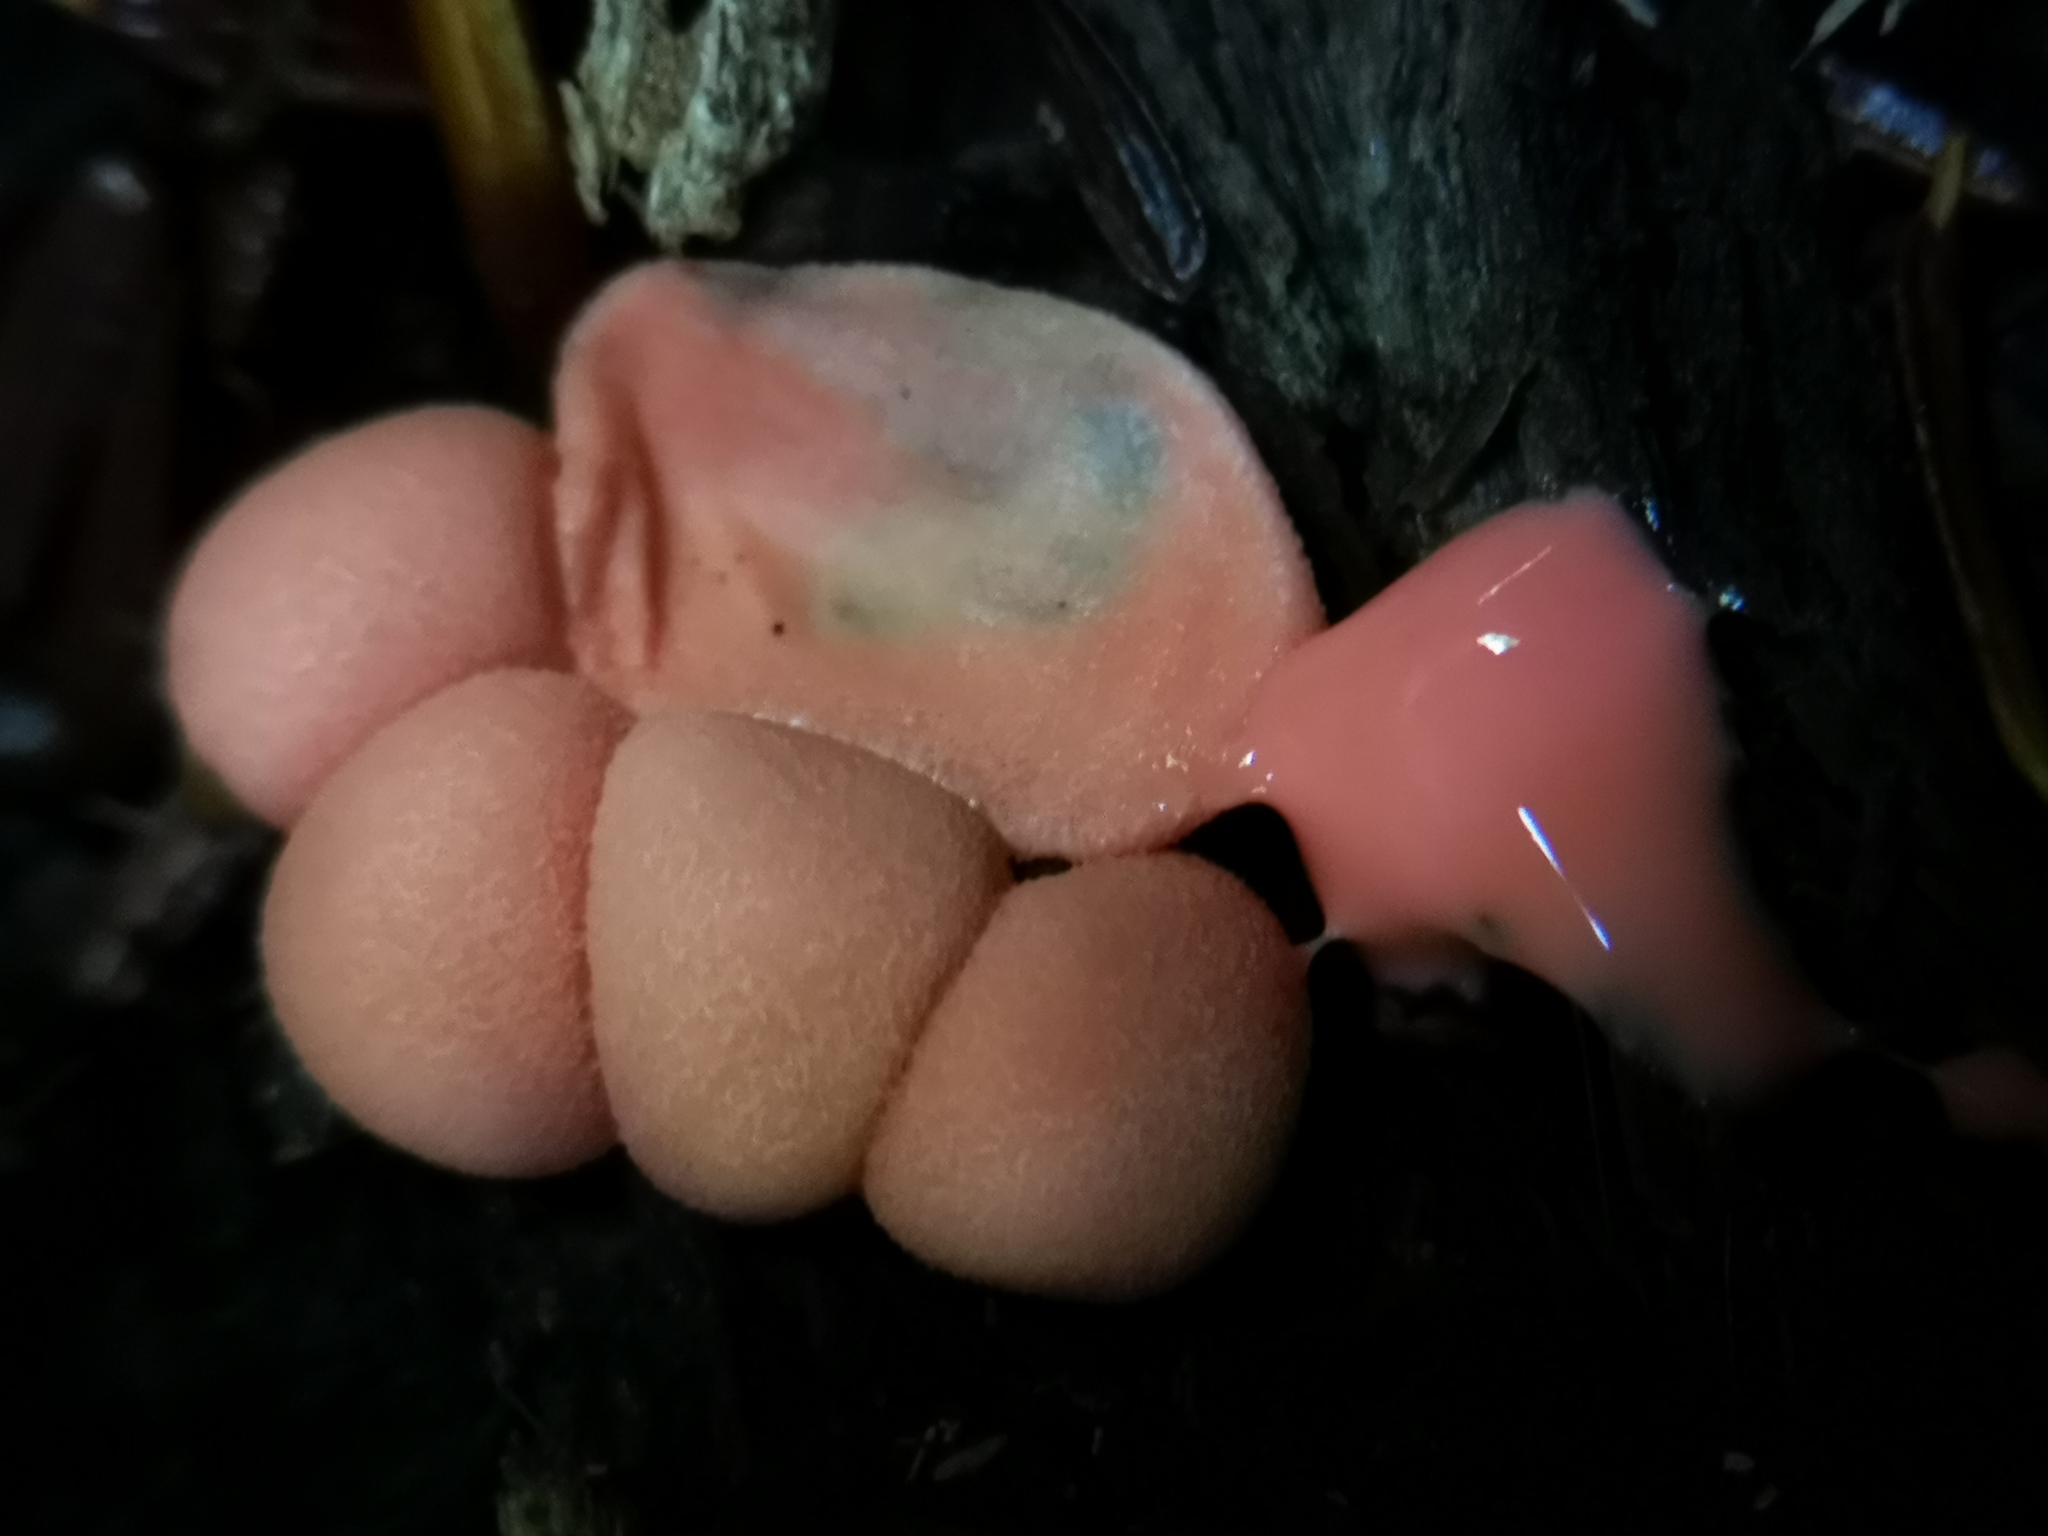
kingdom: Protozoa
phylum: Mycetozoa
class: Myxomycetes
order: Cribrariales
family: Tubiferaceae
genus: Lycogala
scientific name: Lycogala epidendrum
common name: Wolf's milk
